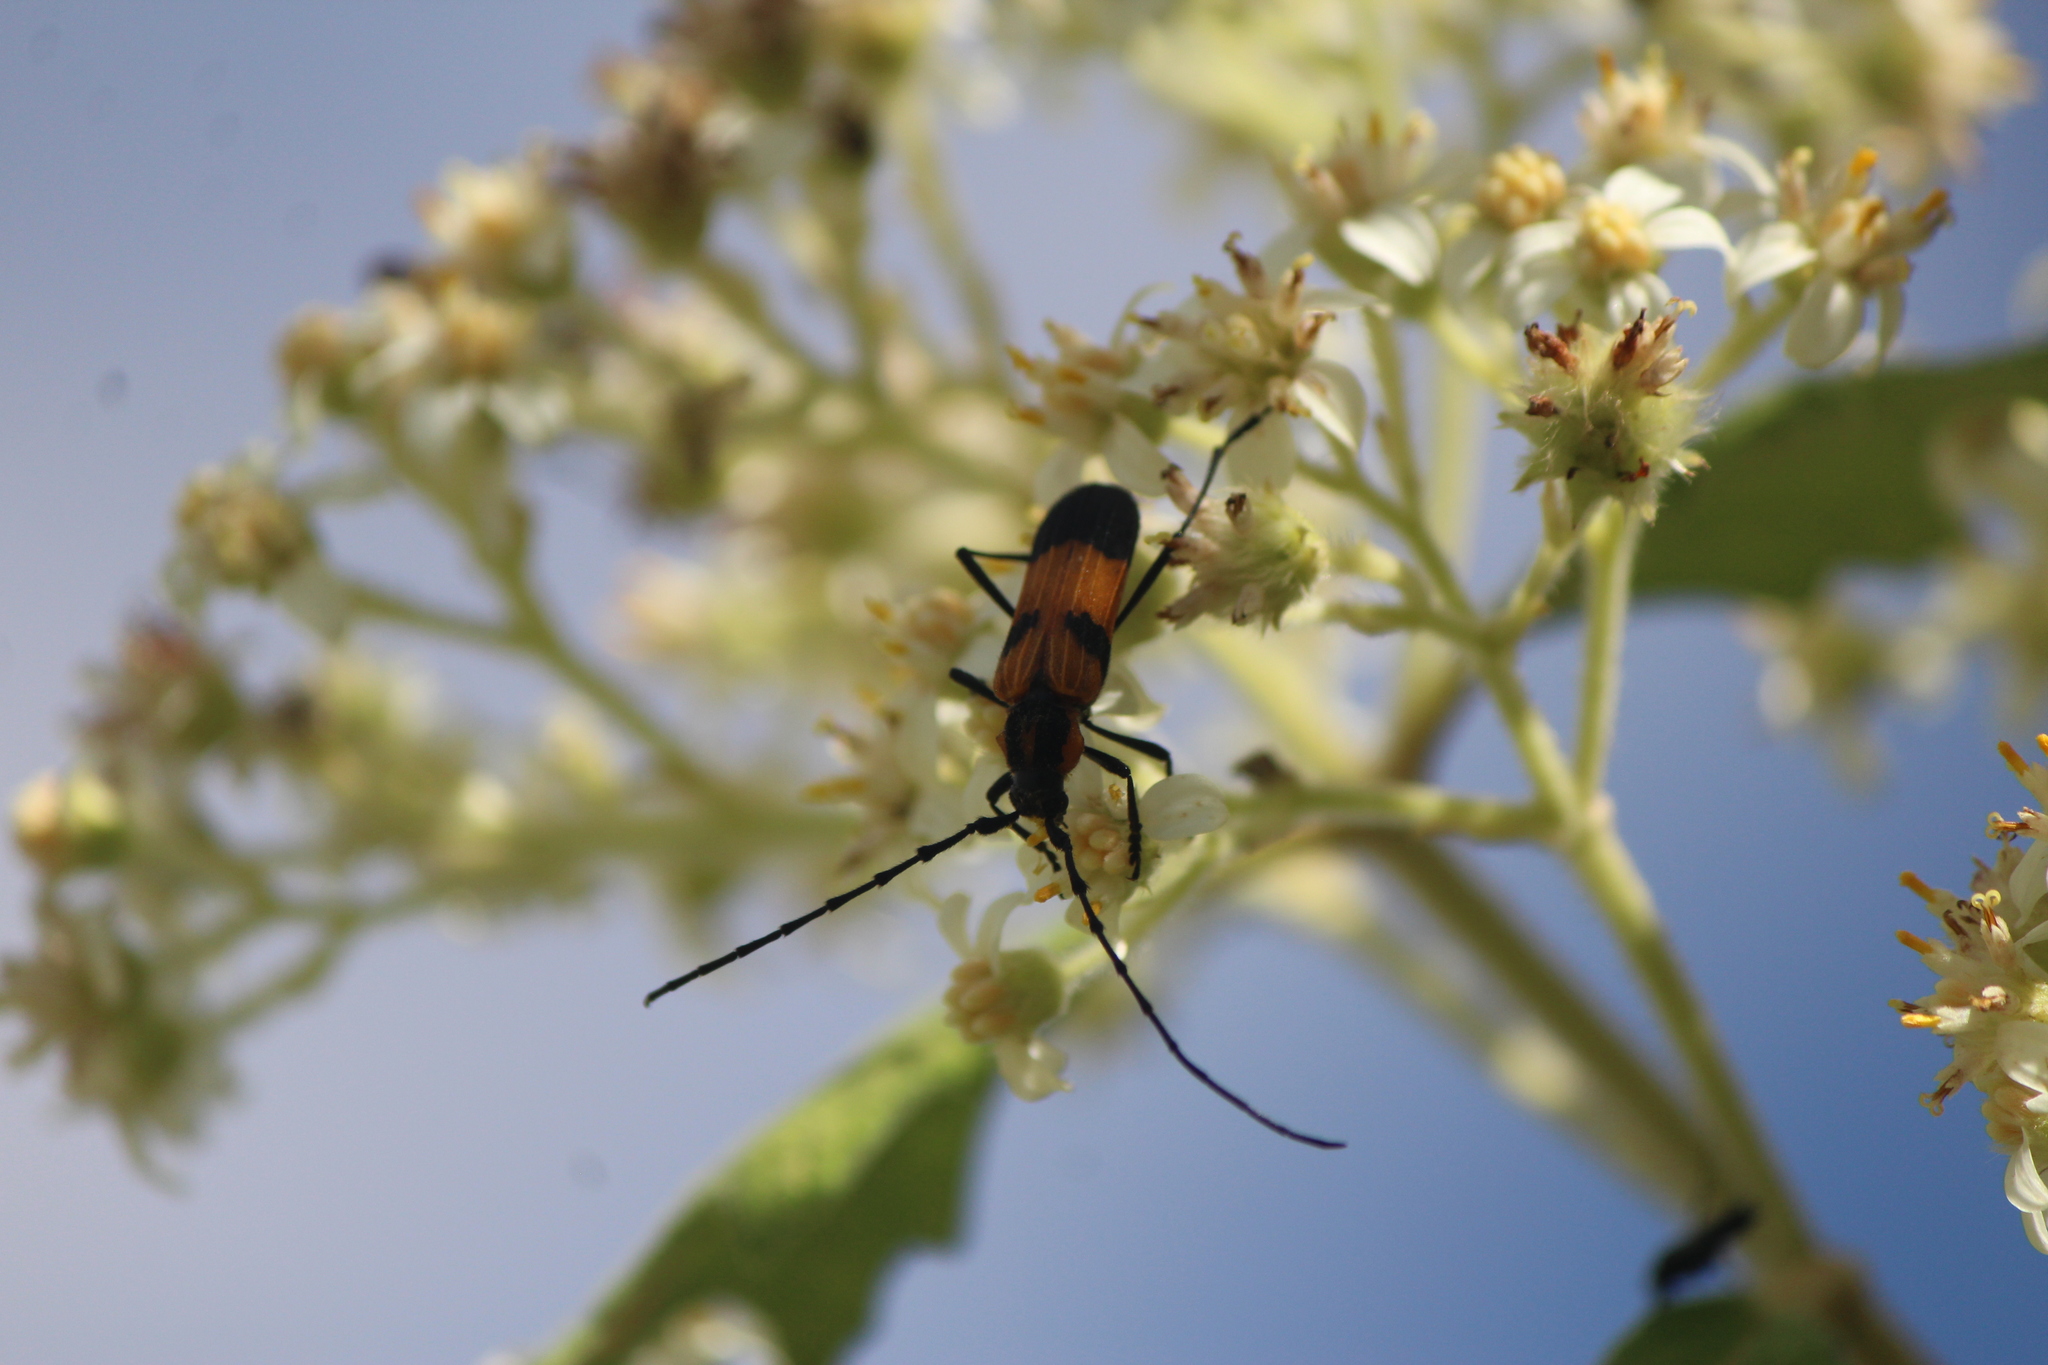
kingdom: Animalia
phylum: Arthropoda
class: Insecta
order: Coleoptera
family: Cerambycidae
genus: Parevander
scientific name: Parevander hovorei
